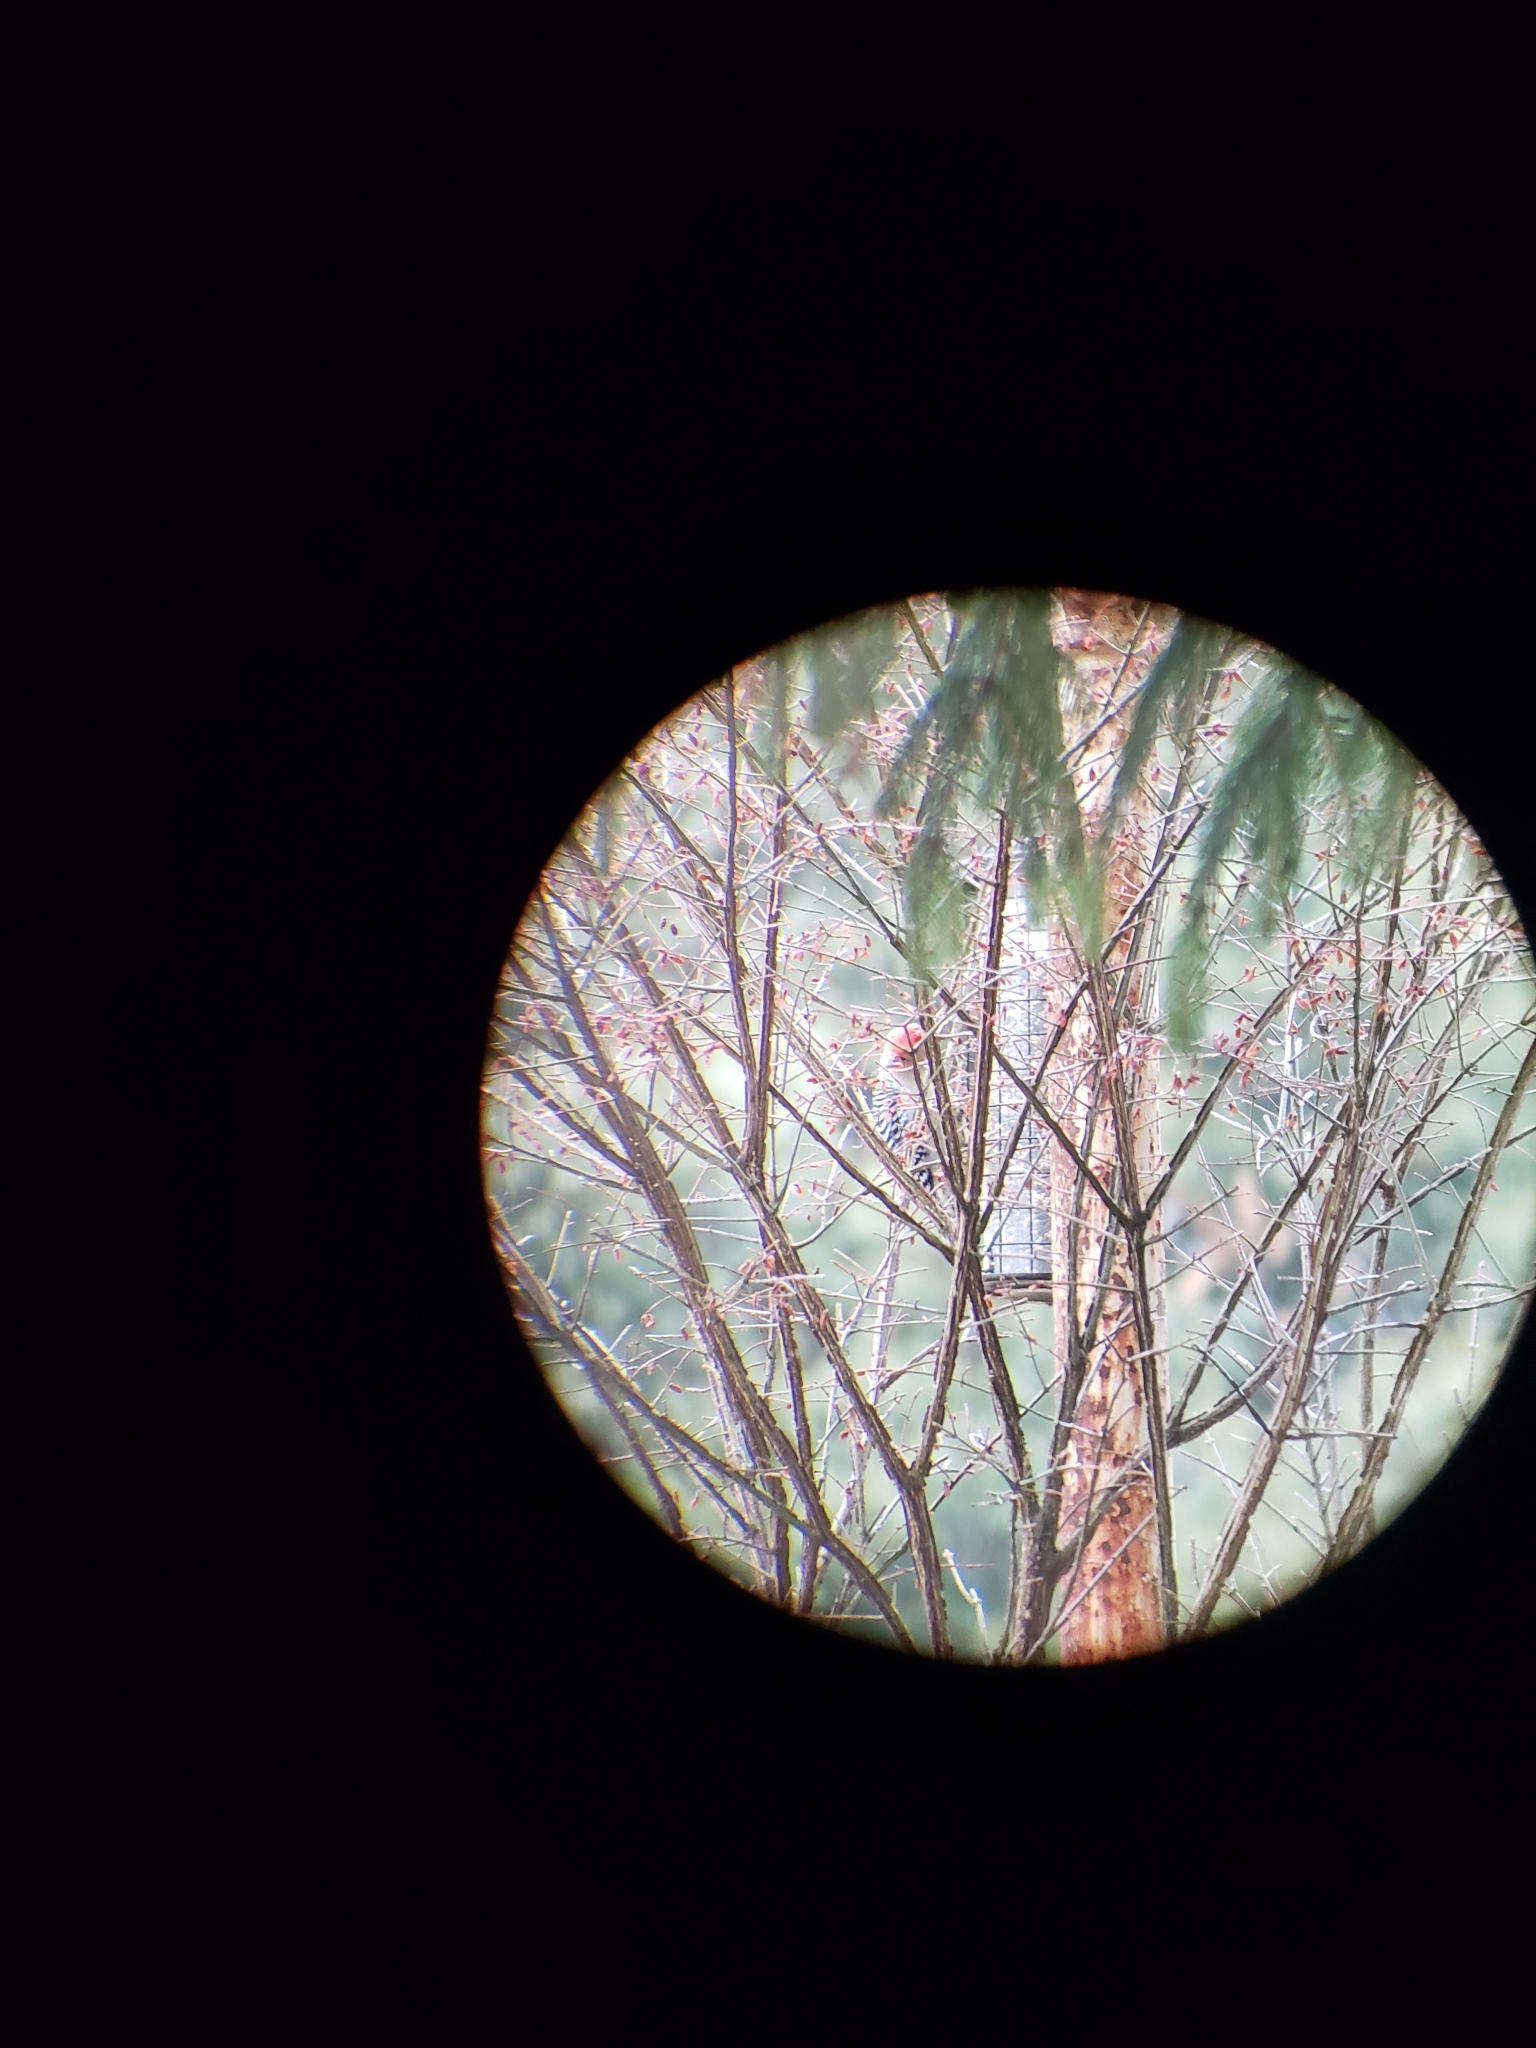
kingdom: Animalia
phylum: Chordata
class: Aves
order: Piciformes
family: Picidae
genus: Melanerpes
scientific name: Melanerpes carolinus
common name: Red-bellied woodpecker
